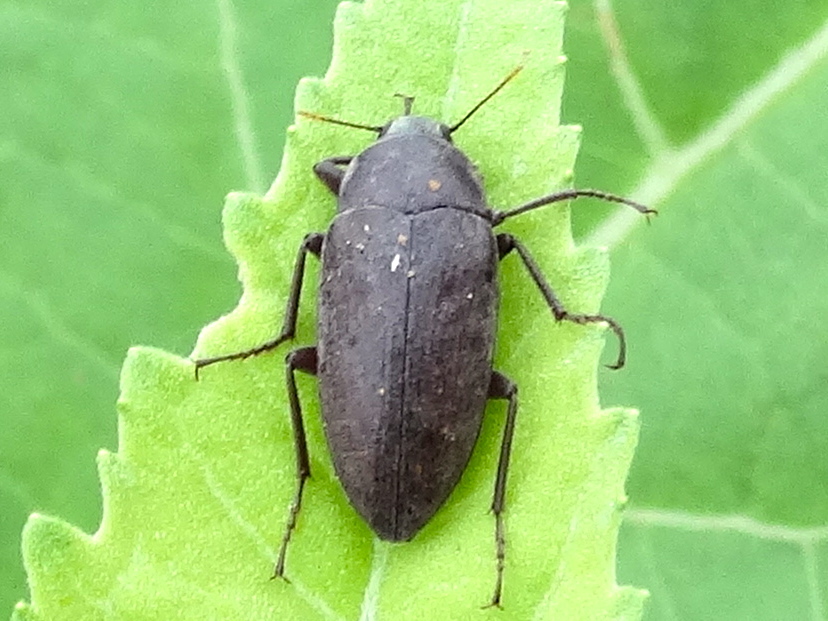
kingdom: Animalia
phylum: Arthropoda
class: Insecta
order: Coleoptera
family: Tenebrionidae
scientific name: Tenebrionidae
